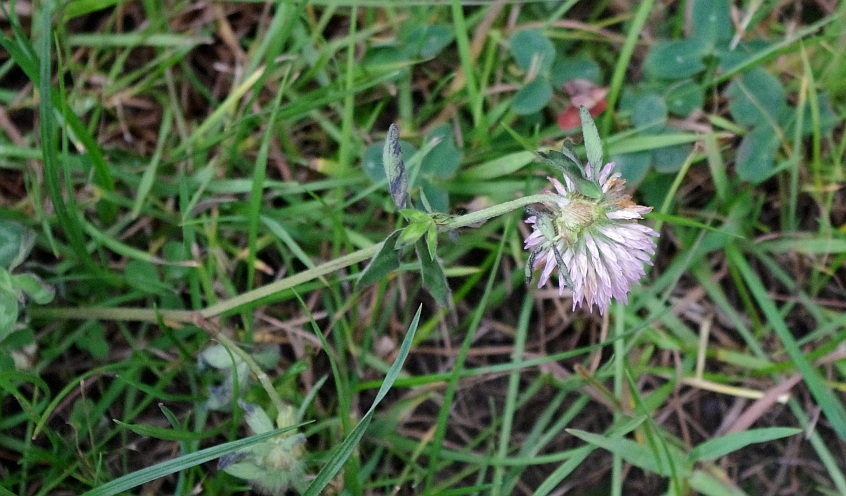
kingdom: Plantae
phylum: Tracheophyta
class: Magnoliopsida
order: Fabales
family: Fabaceae
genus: Trifolium
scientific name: Trifolium pratense
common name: Red clover
